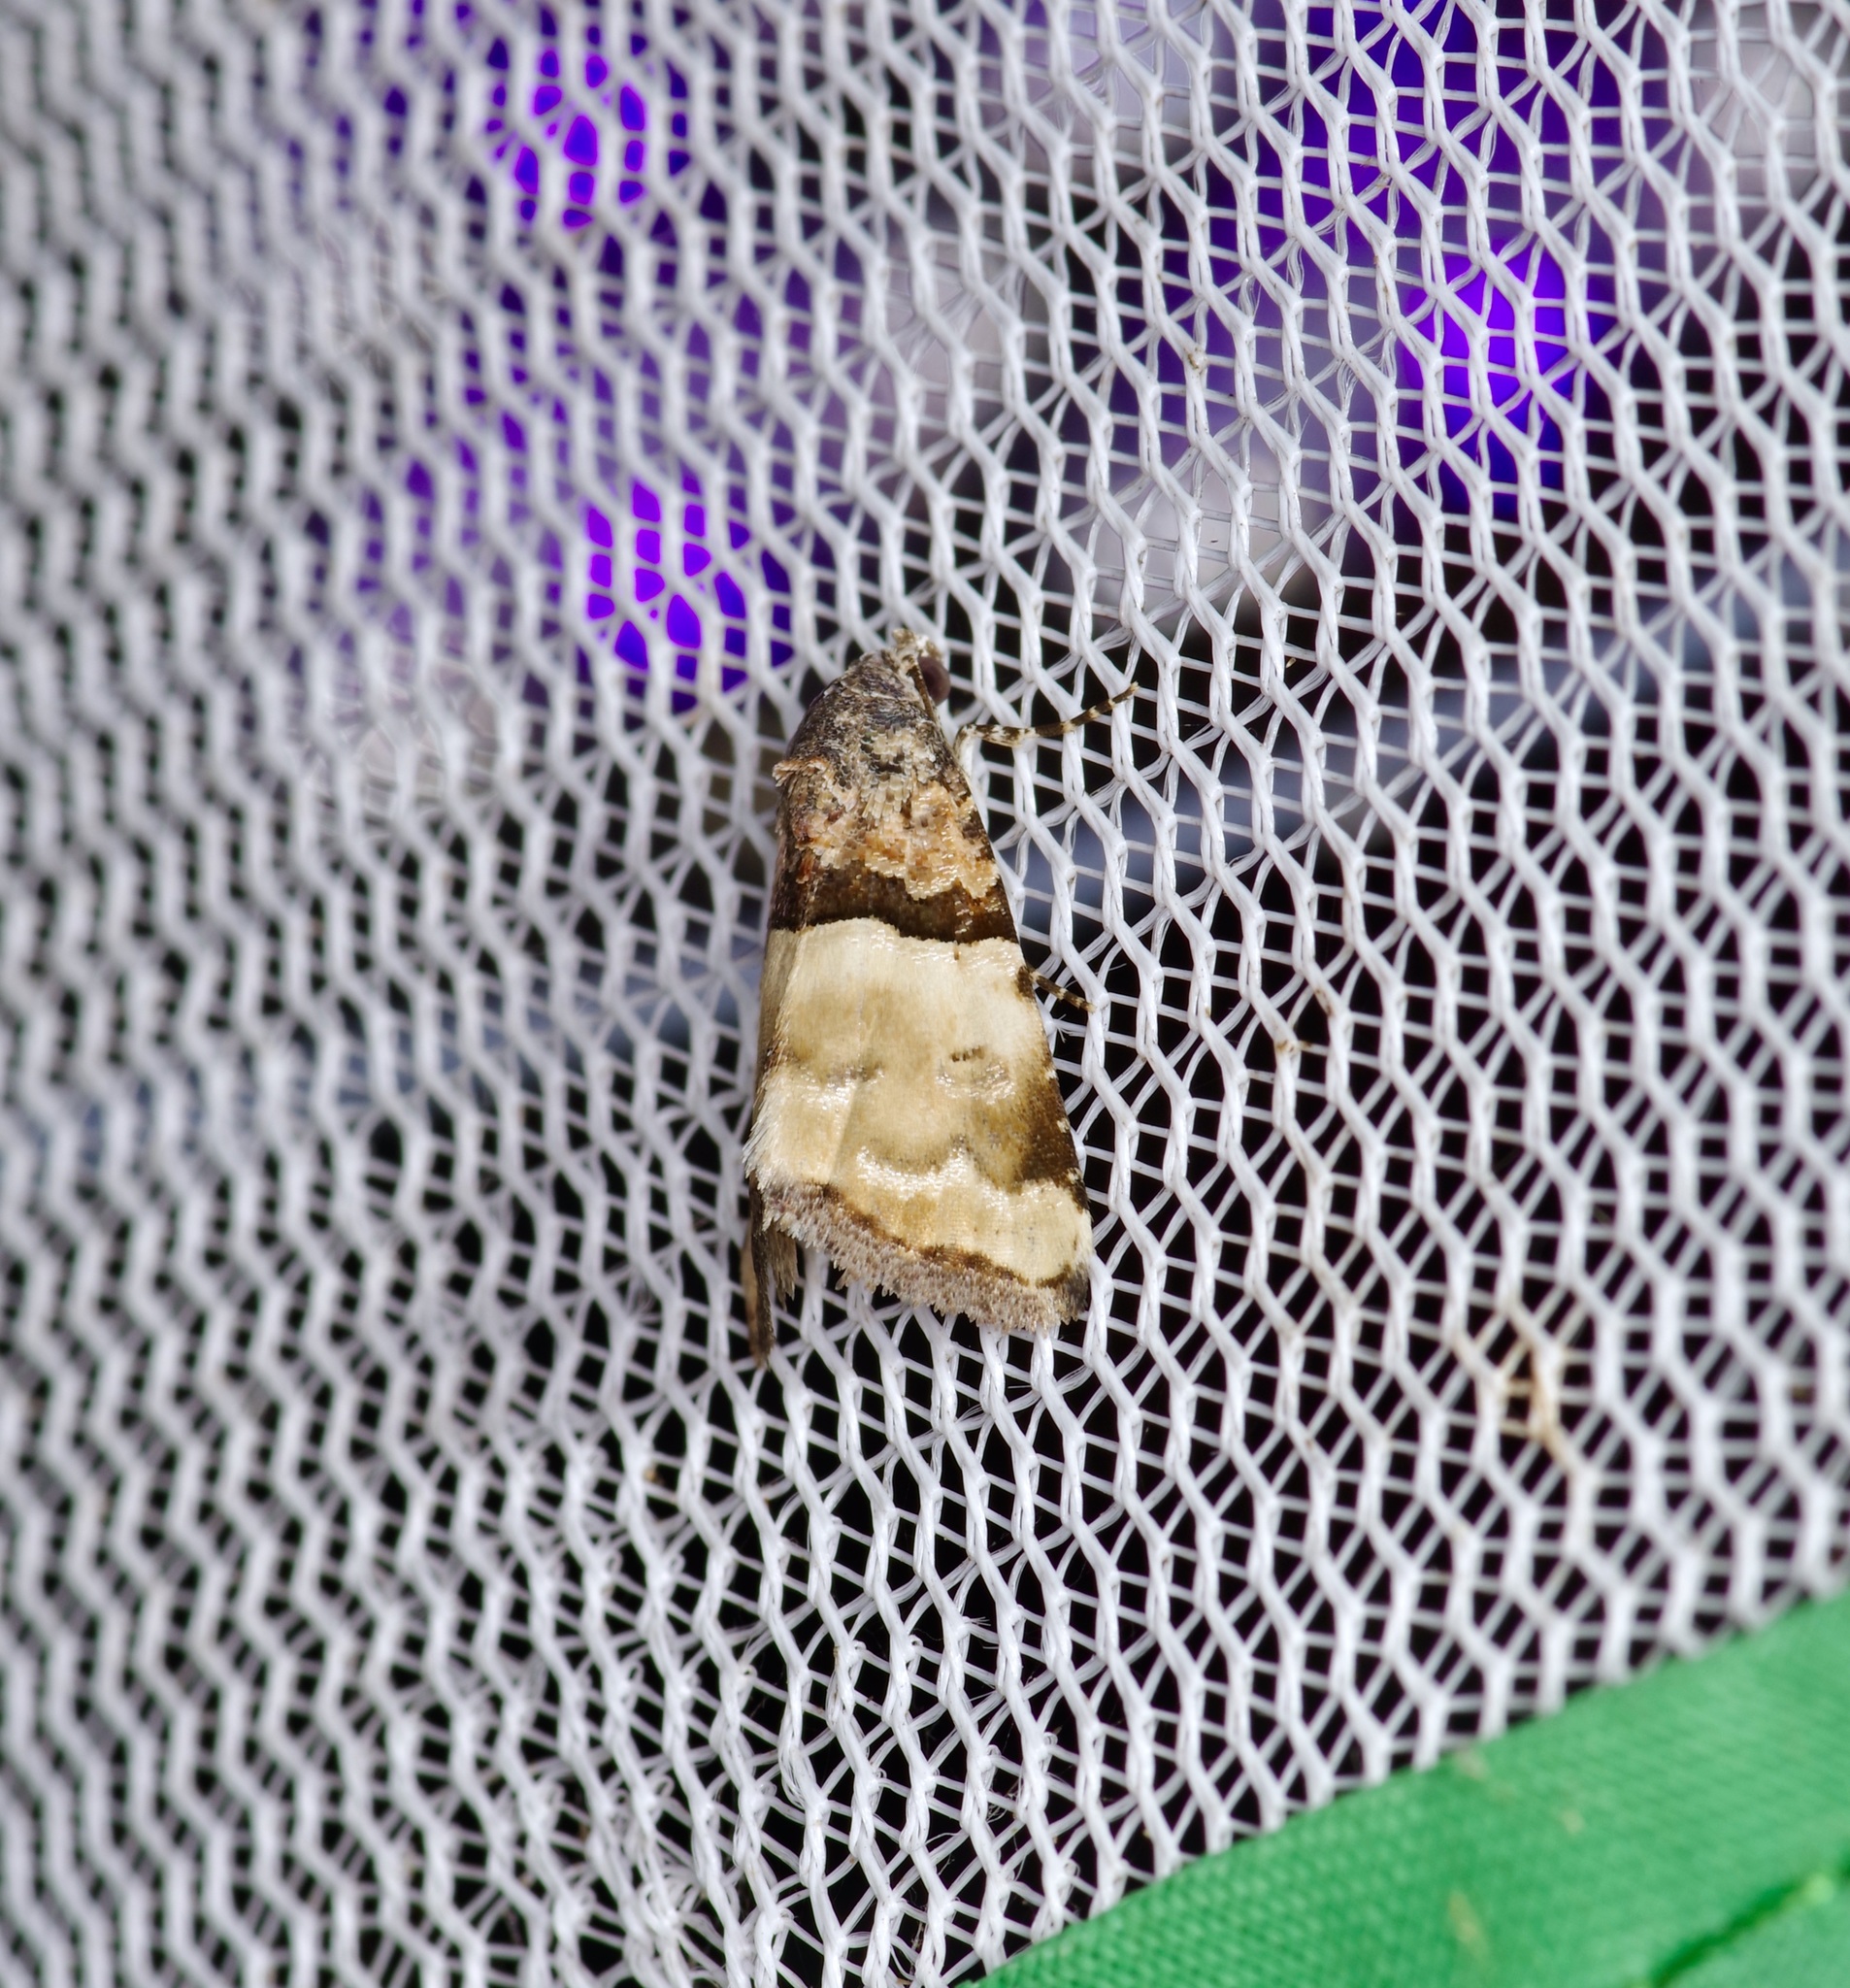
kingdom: Animalia
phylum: Arthropoda
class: Insecta
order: Lepidoptera
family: Noctuidae
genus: Cobubatha
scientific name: Cobubatha dividua
